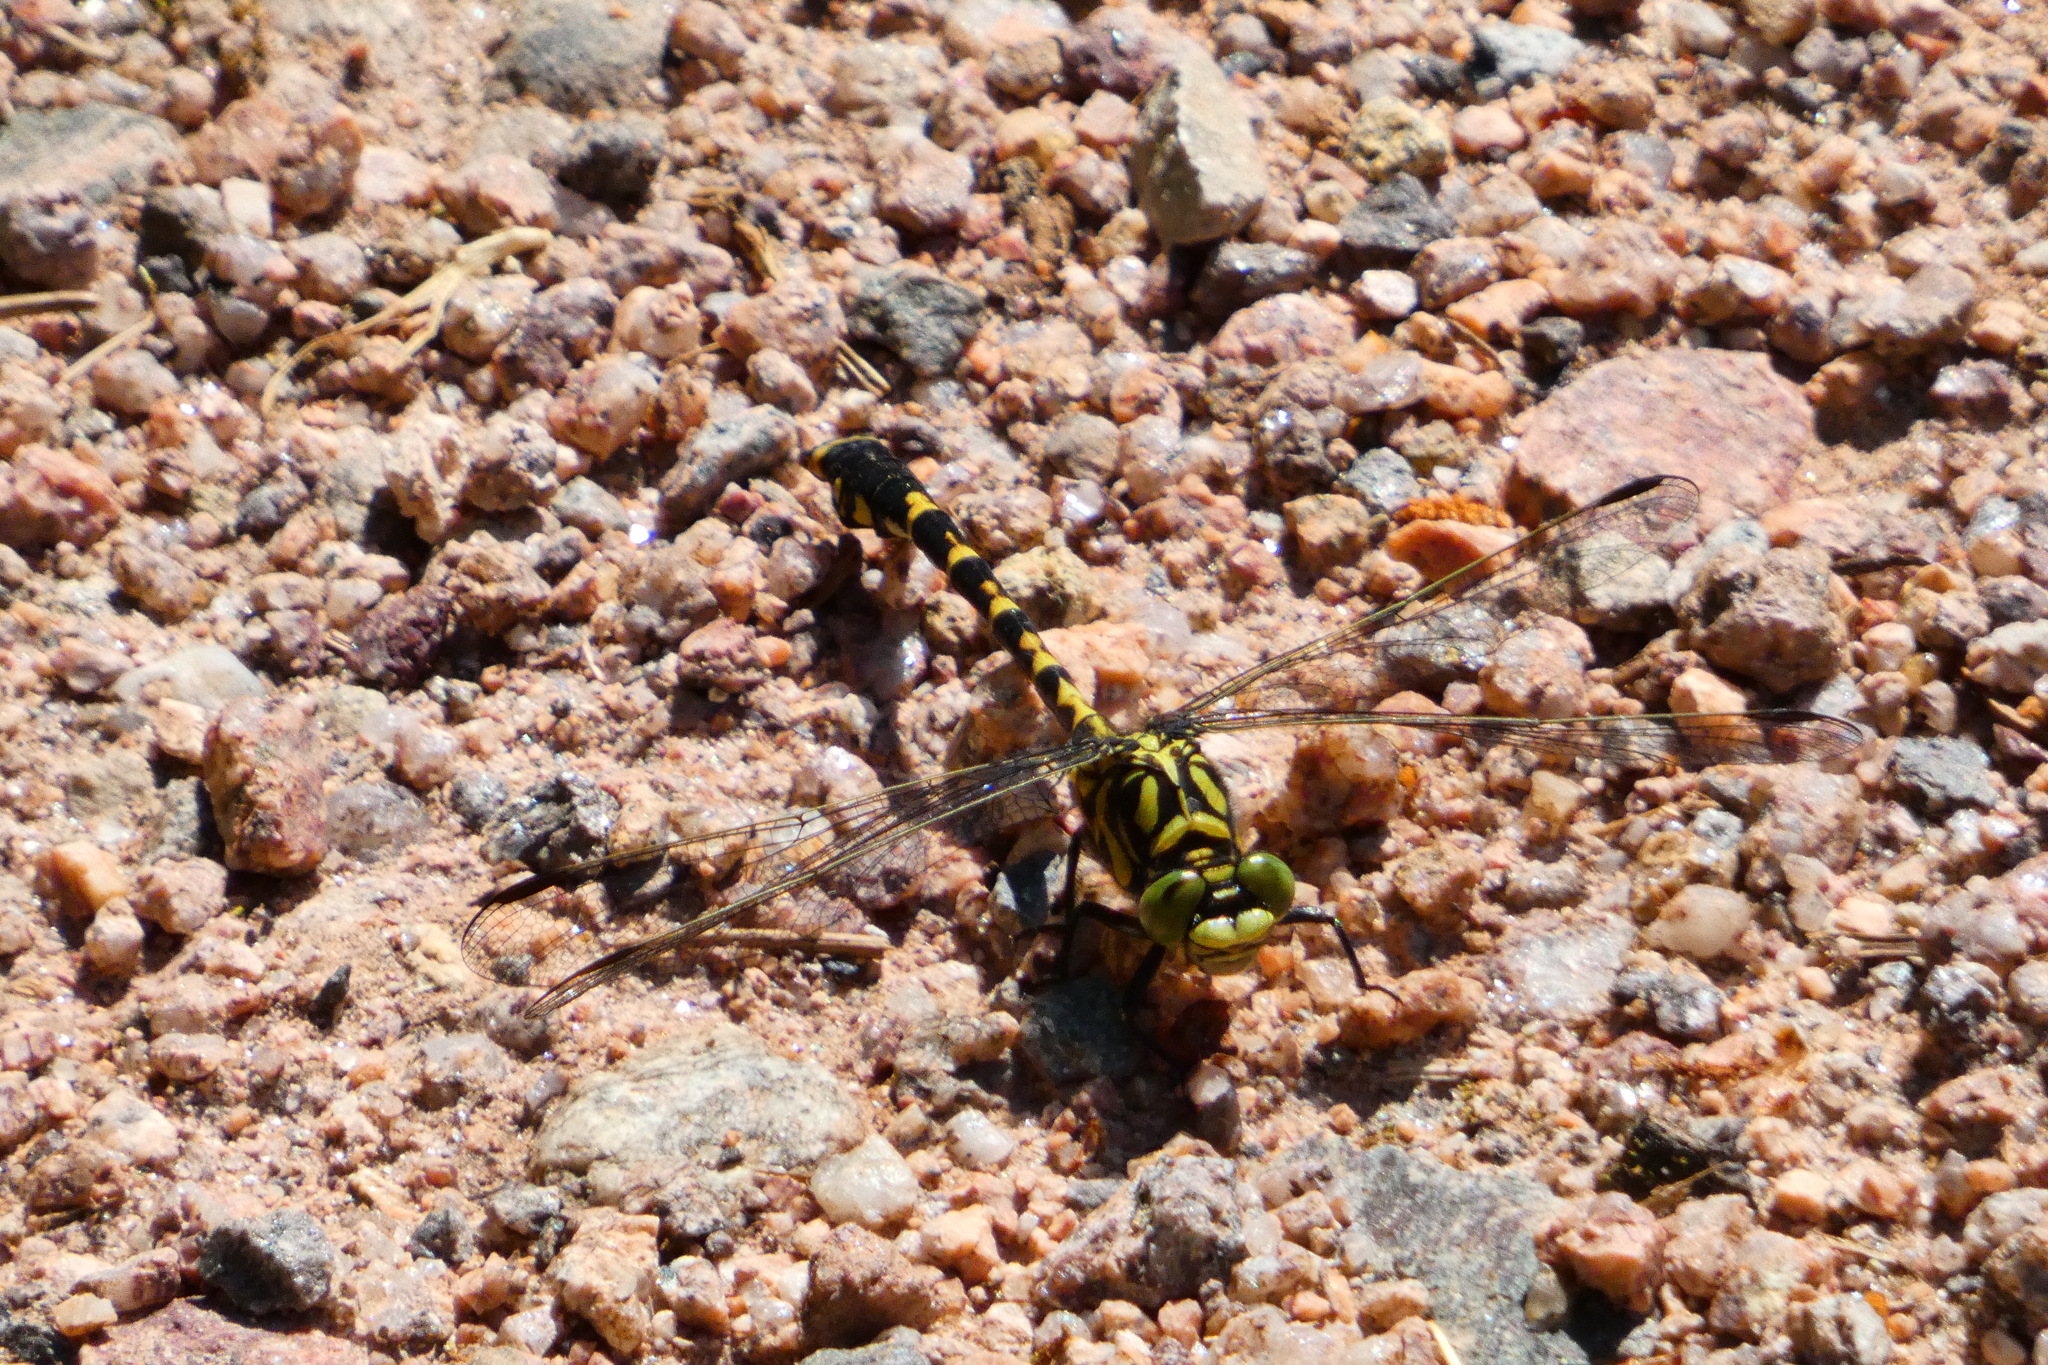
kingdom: Animalia
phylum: Arthropoda
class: Insecta
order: Odonata
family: Gomphidae
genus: Onychogomphus
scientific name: Onychogomphus forcipatus
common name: Small pincertail
